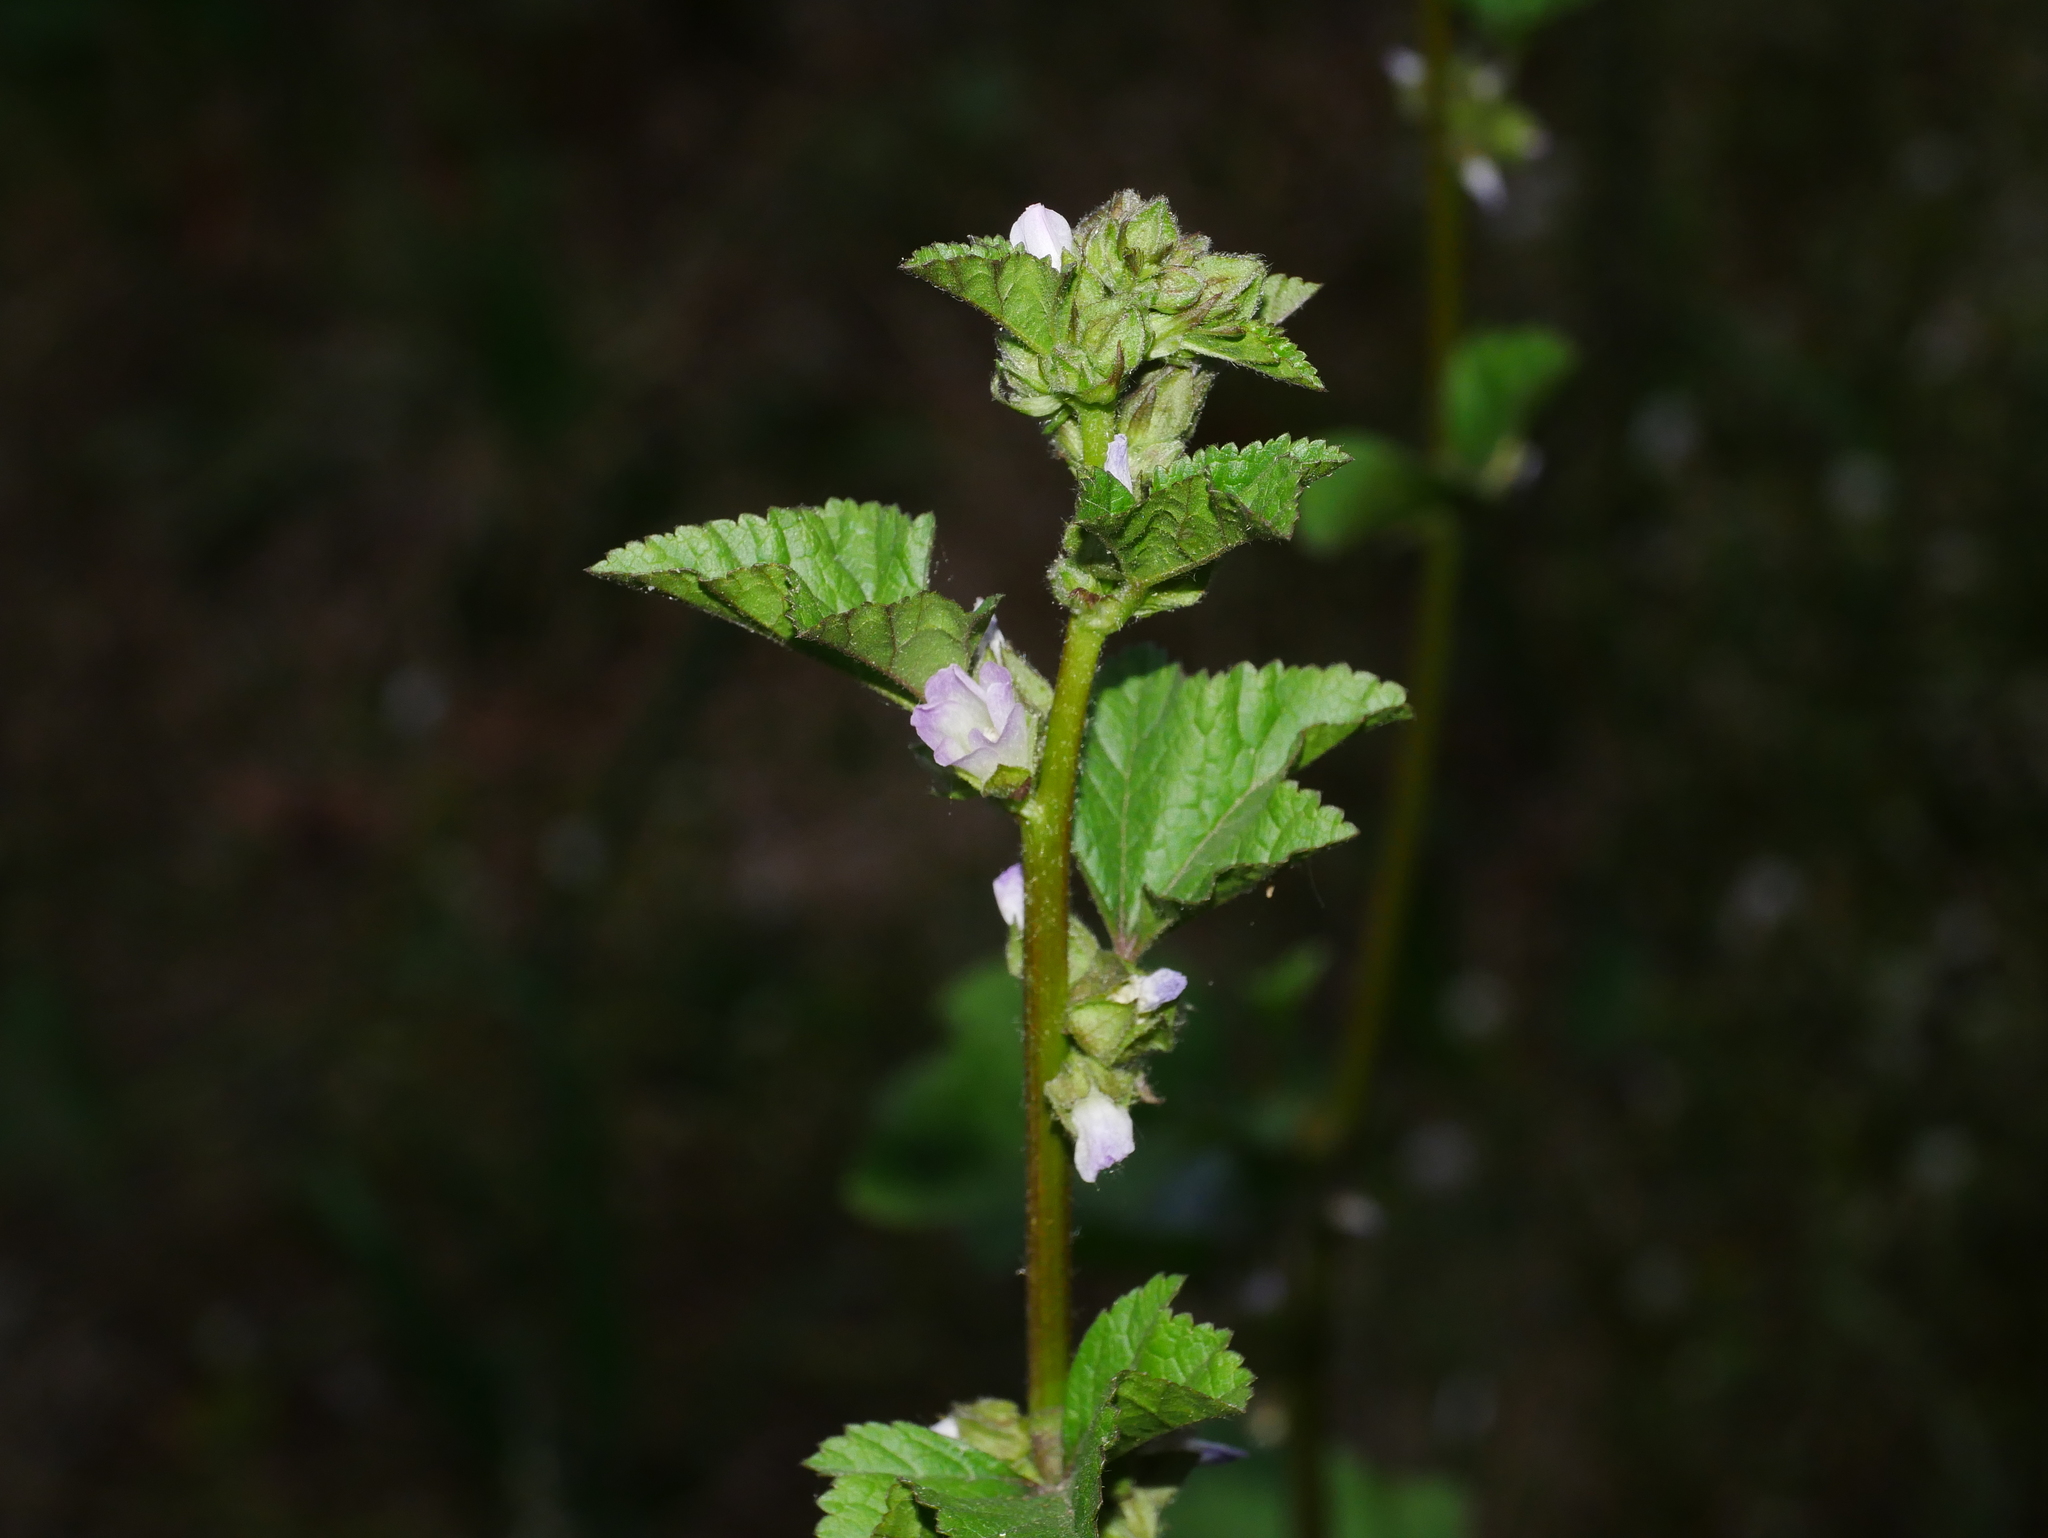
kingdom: Plantae
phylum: Tracheophyta
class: Magnoliopsida
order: Malvales
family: Malvaceae
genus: Malva
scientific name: Malva cavanillesiana
